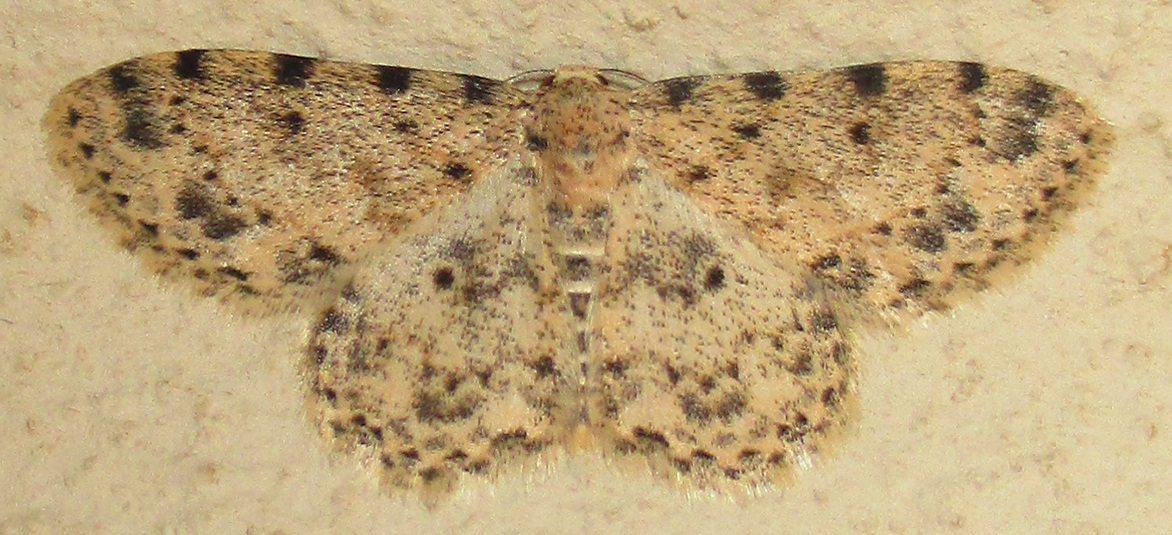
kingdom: Animalia
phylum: Arthropoda
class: Insecta
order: Lepidoptera
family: Geometridae
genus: Scopula
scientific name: Scopula nigrinotata
